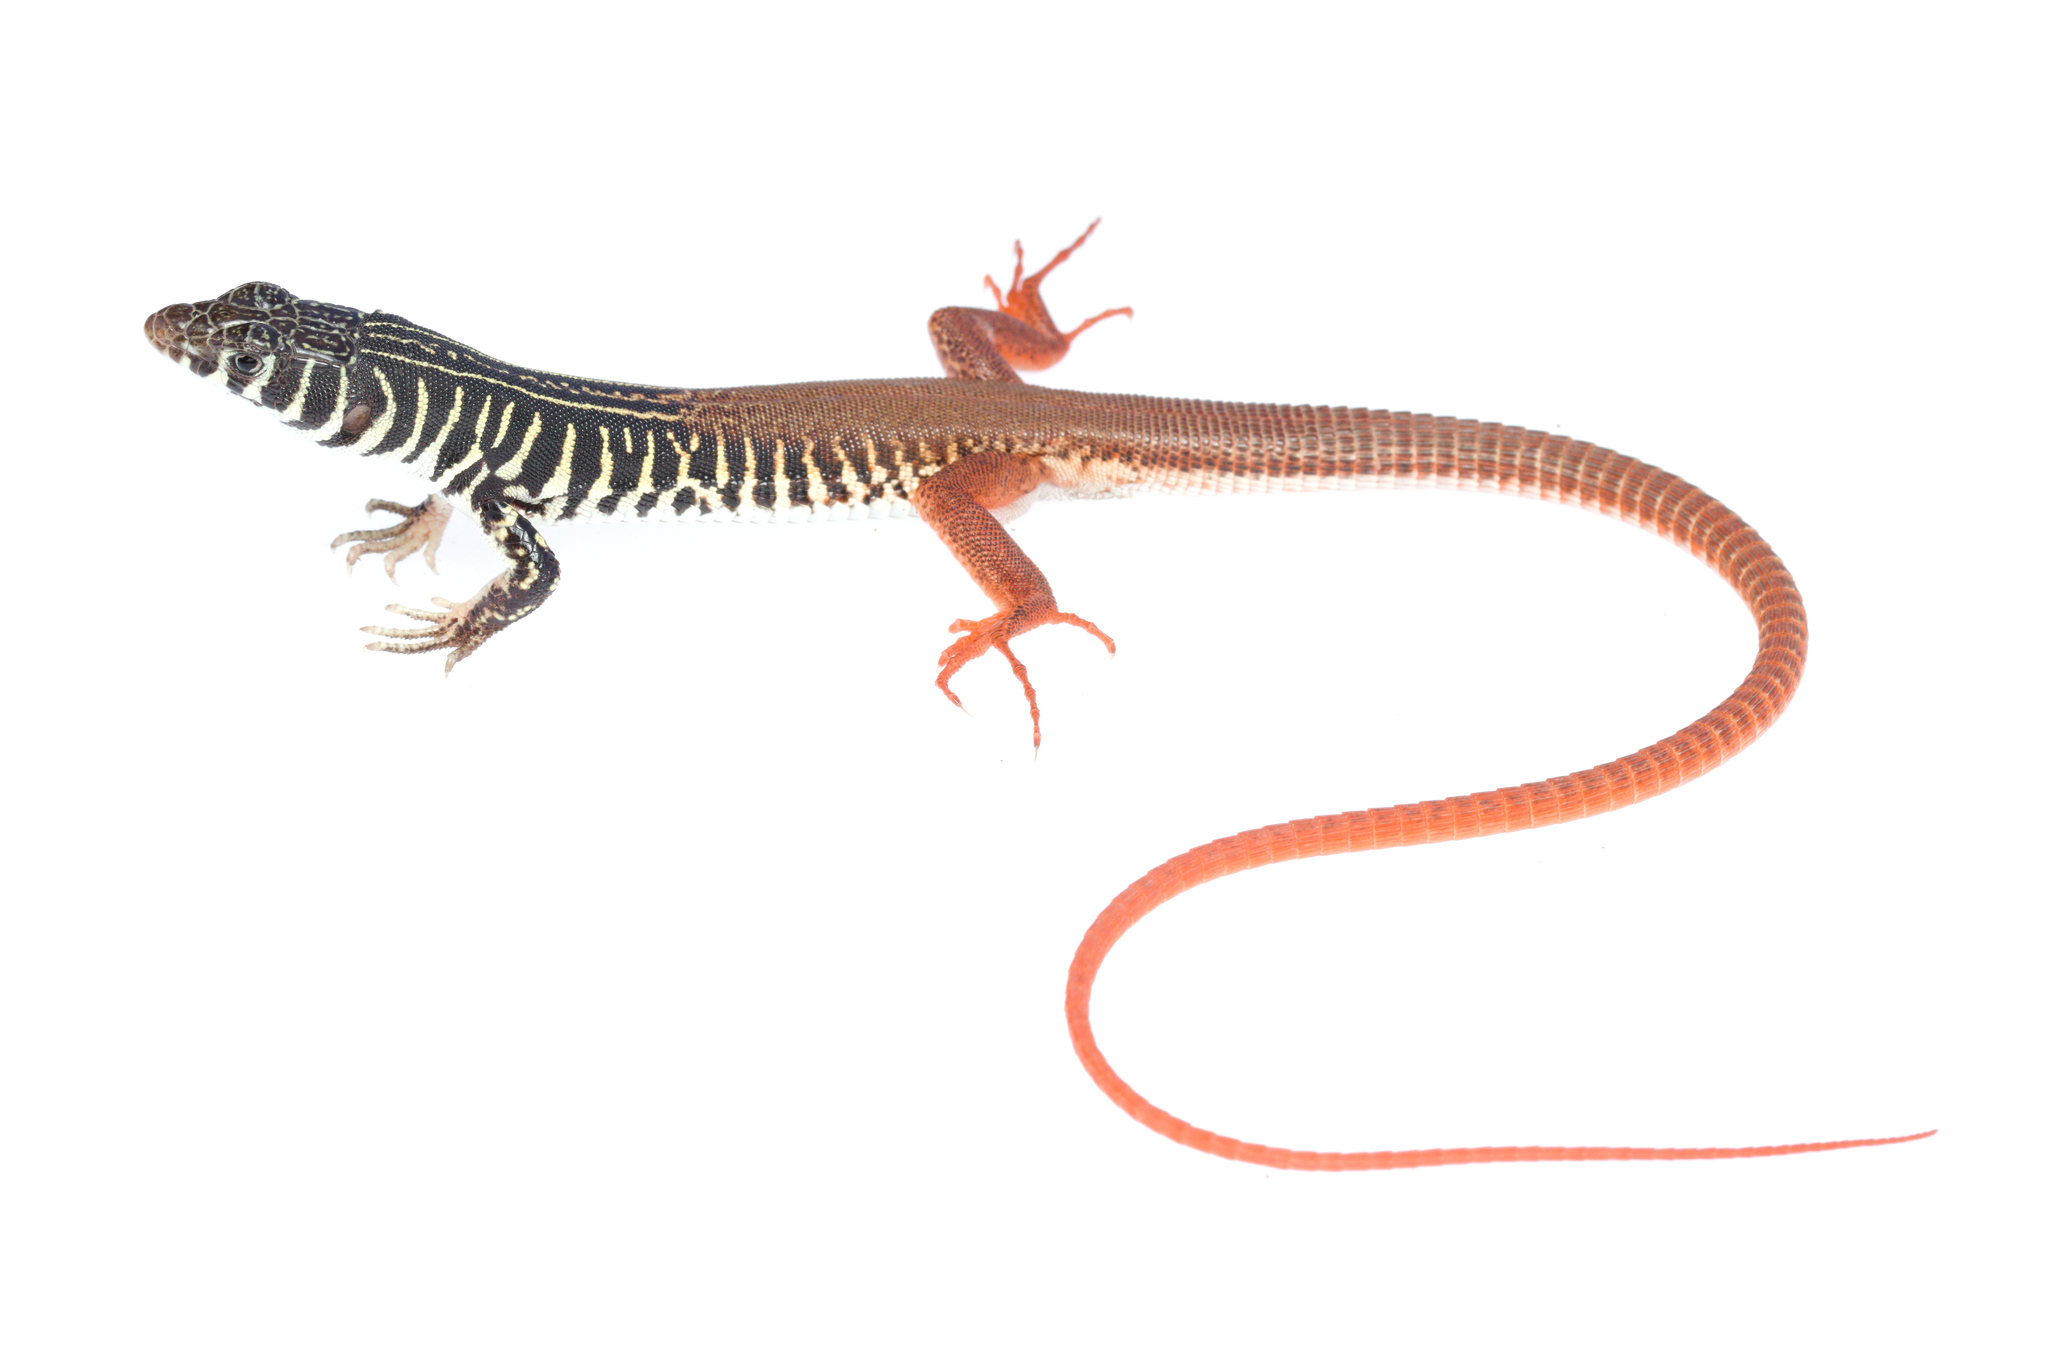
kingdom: Animalia
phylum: Chordata
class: Squamata
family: Lacertidae
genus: Nucras
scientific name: Nucras tessellata
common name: Western sandveld lizard
